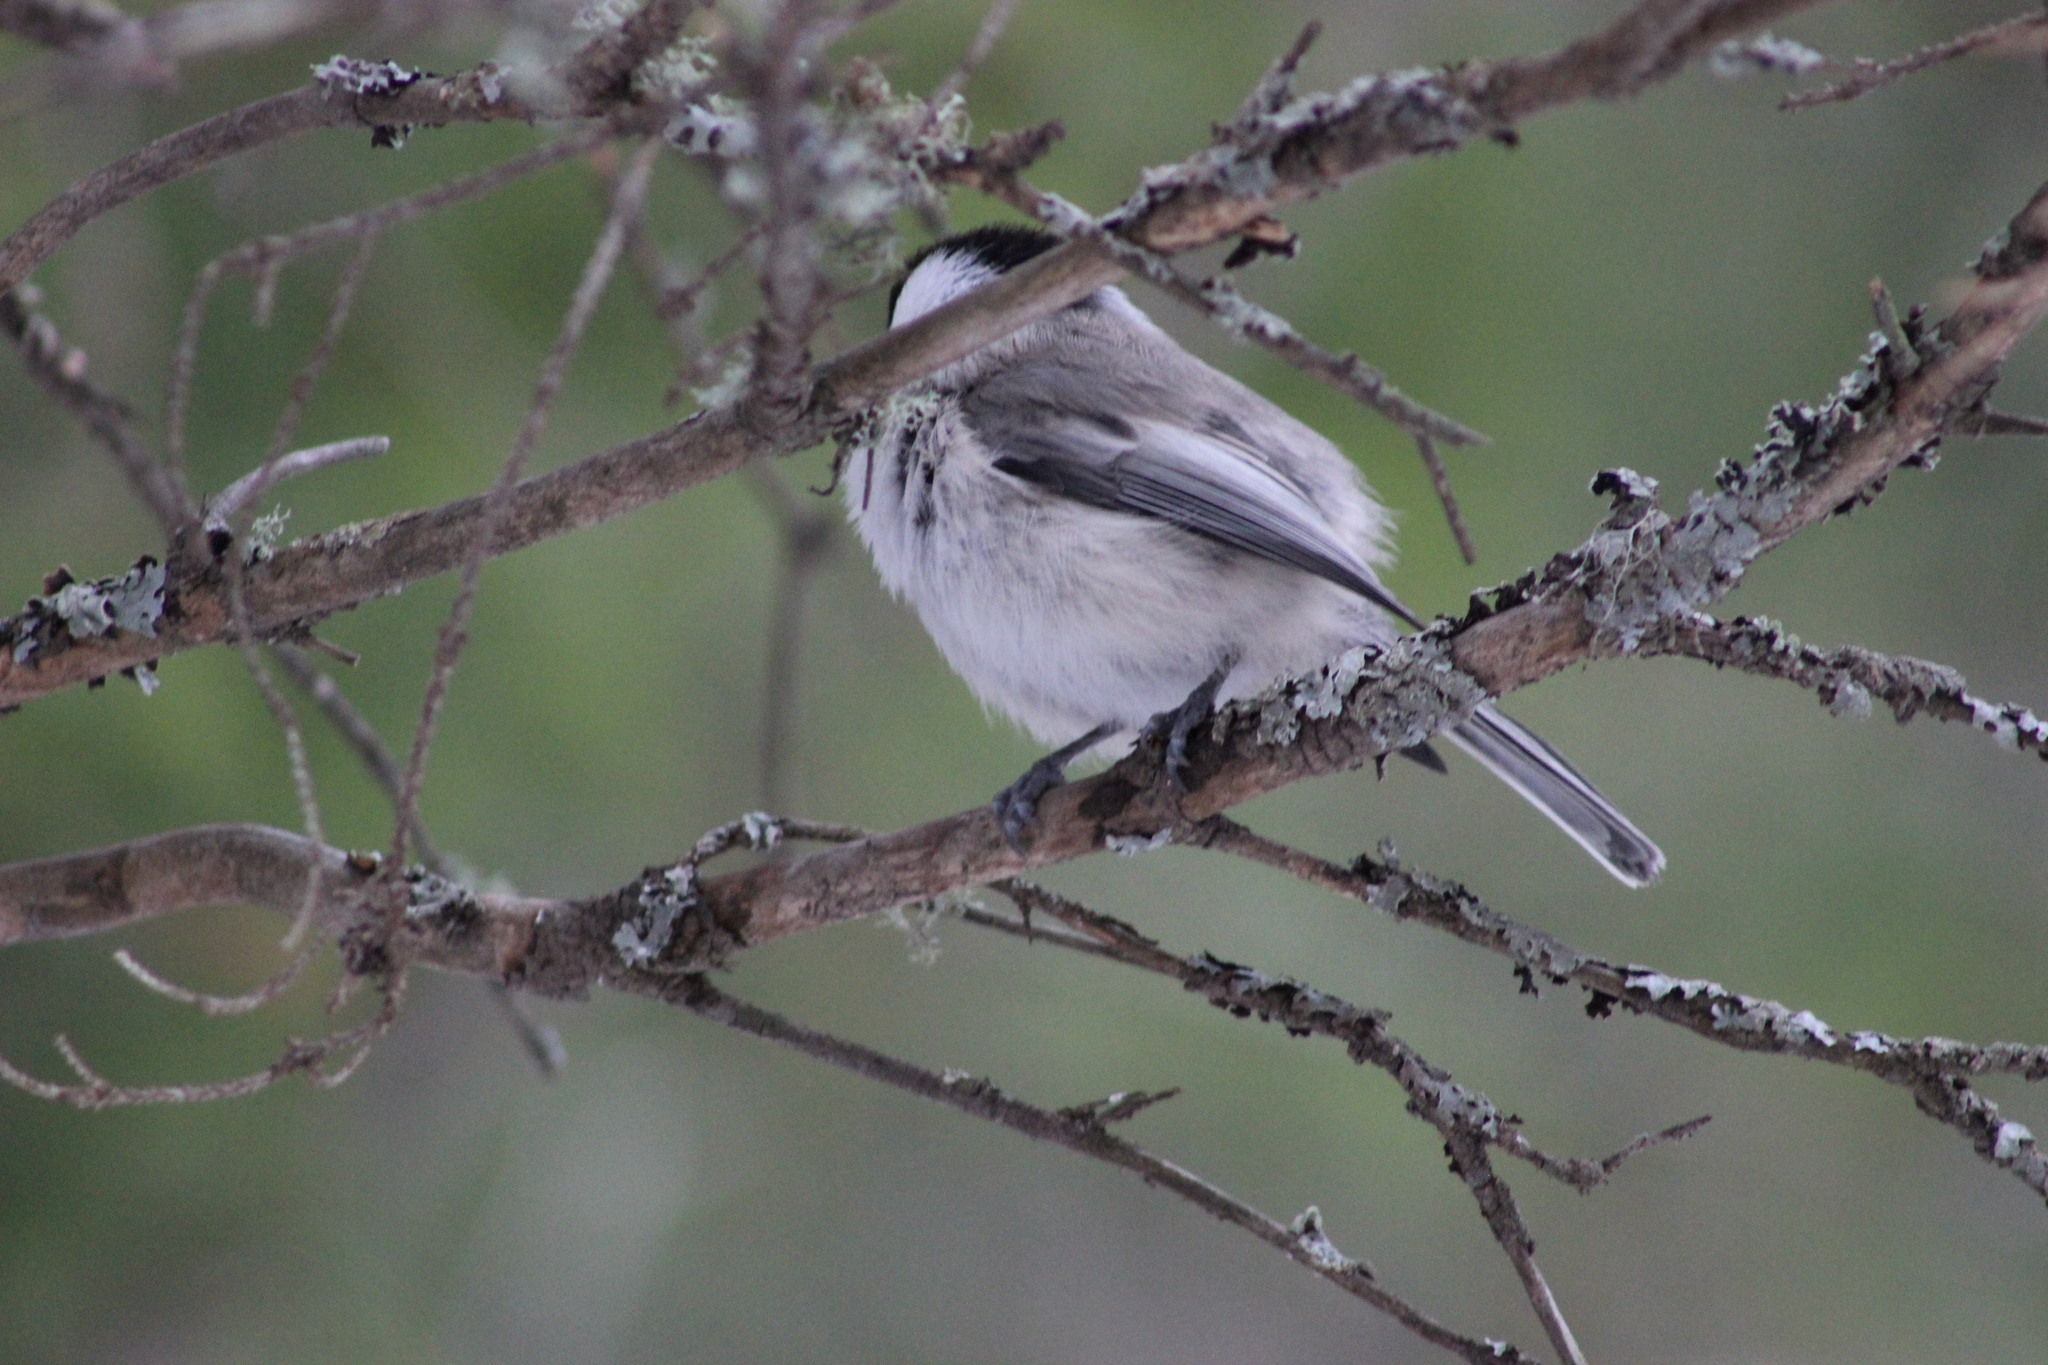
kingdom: Animalia
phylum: Chordata
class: Aves
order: Passeriformes
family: Paridae
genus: Poecile
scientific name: Poecile montanus
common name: Willow tit
